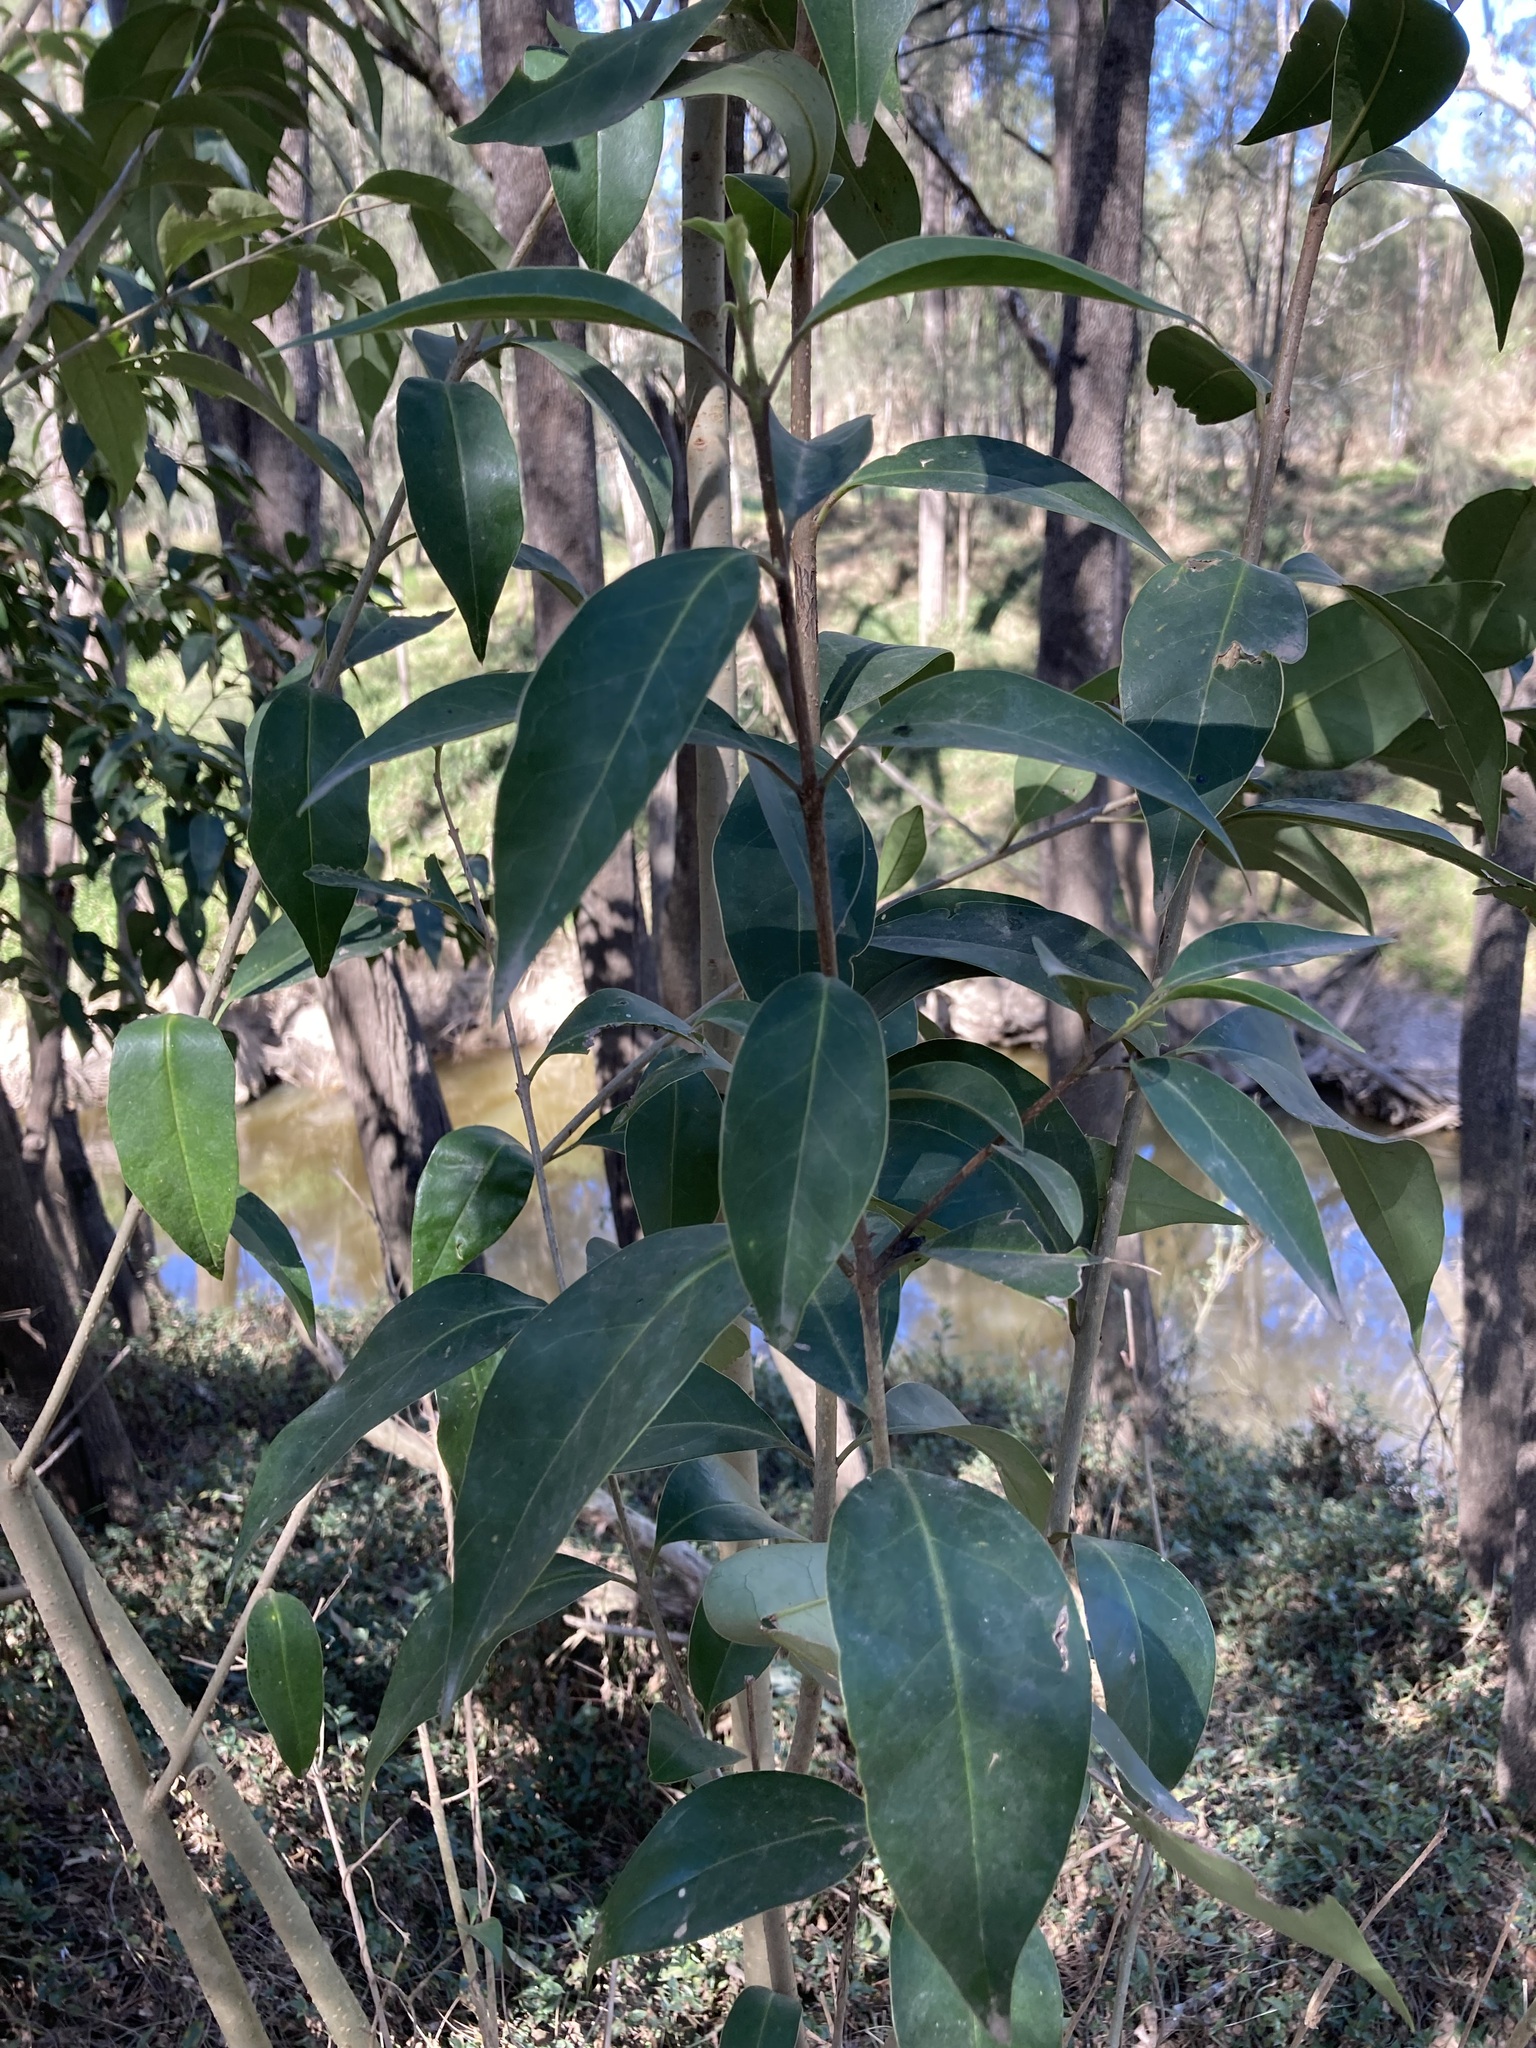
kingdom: Plantae
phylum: Tracheophyta
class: Magnoliopsida
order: Lamiales
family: Oleaceae
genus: Ligustrum
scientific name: Ligustrum lucidum
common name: Glossy privet
